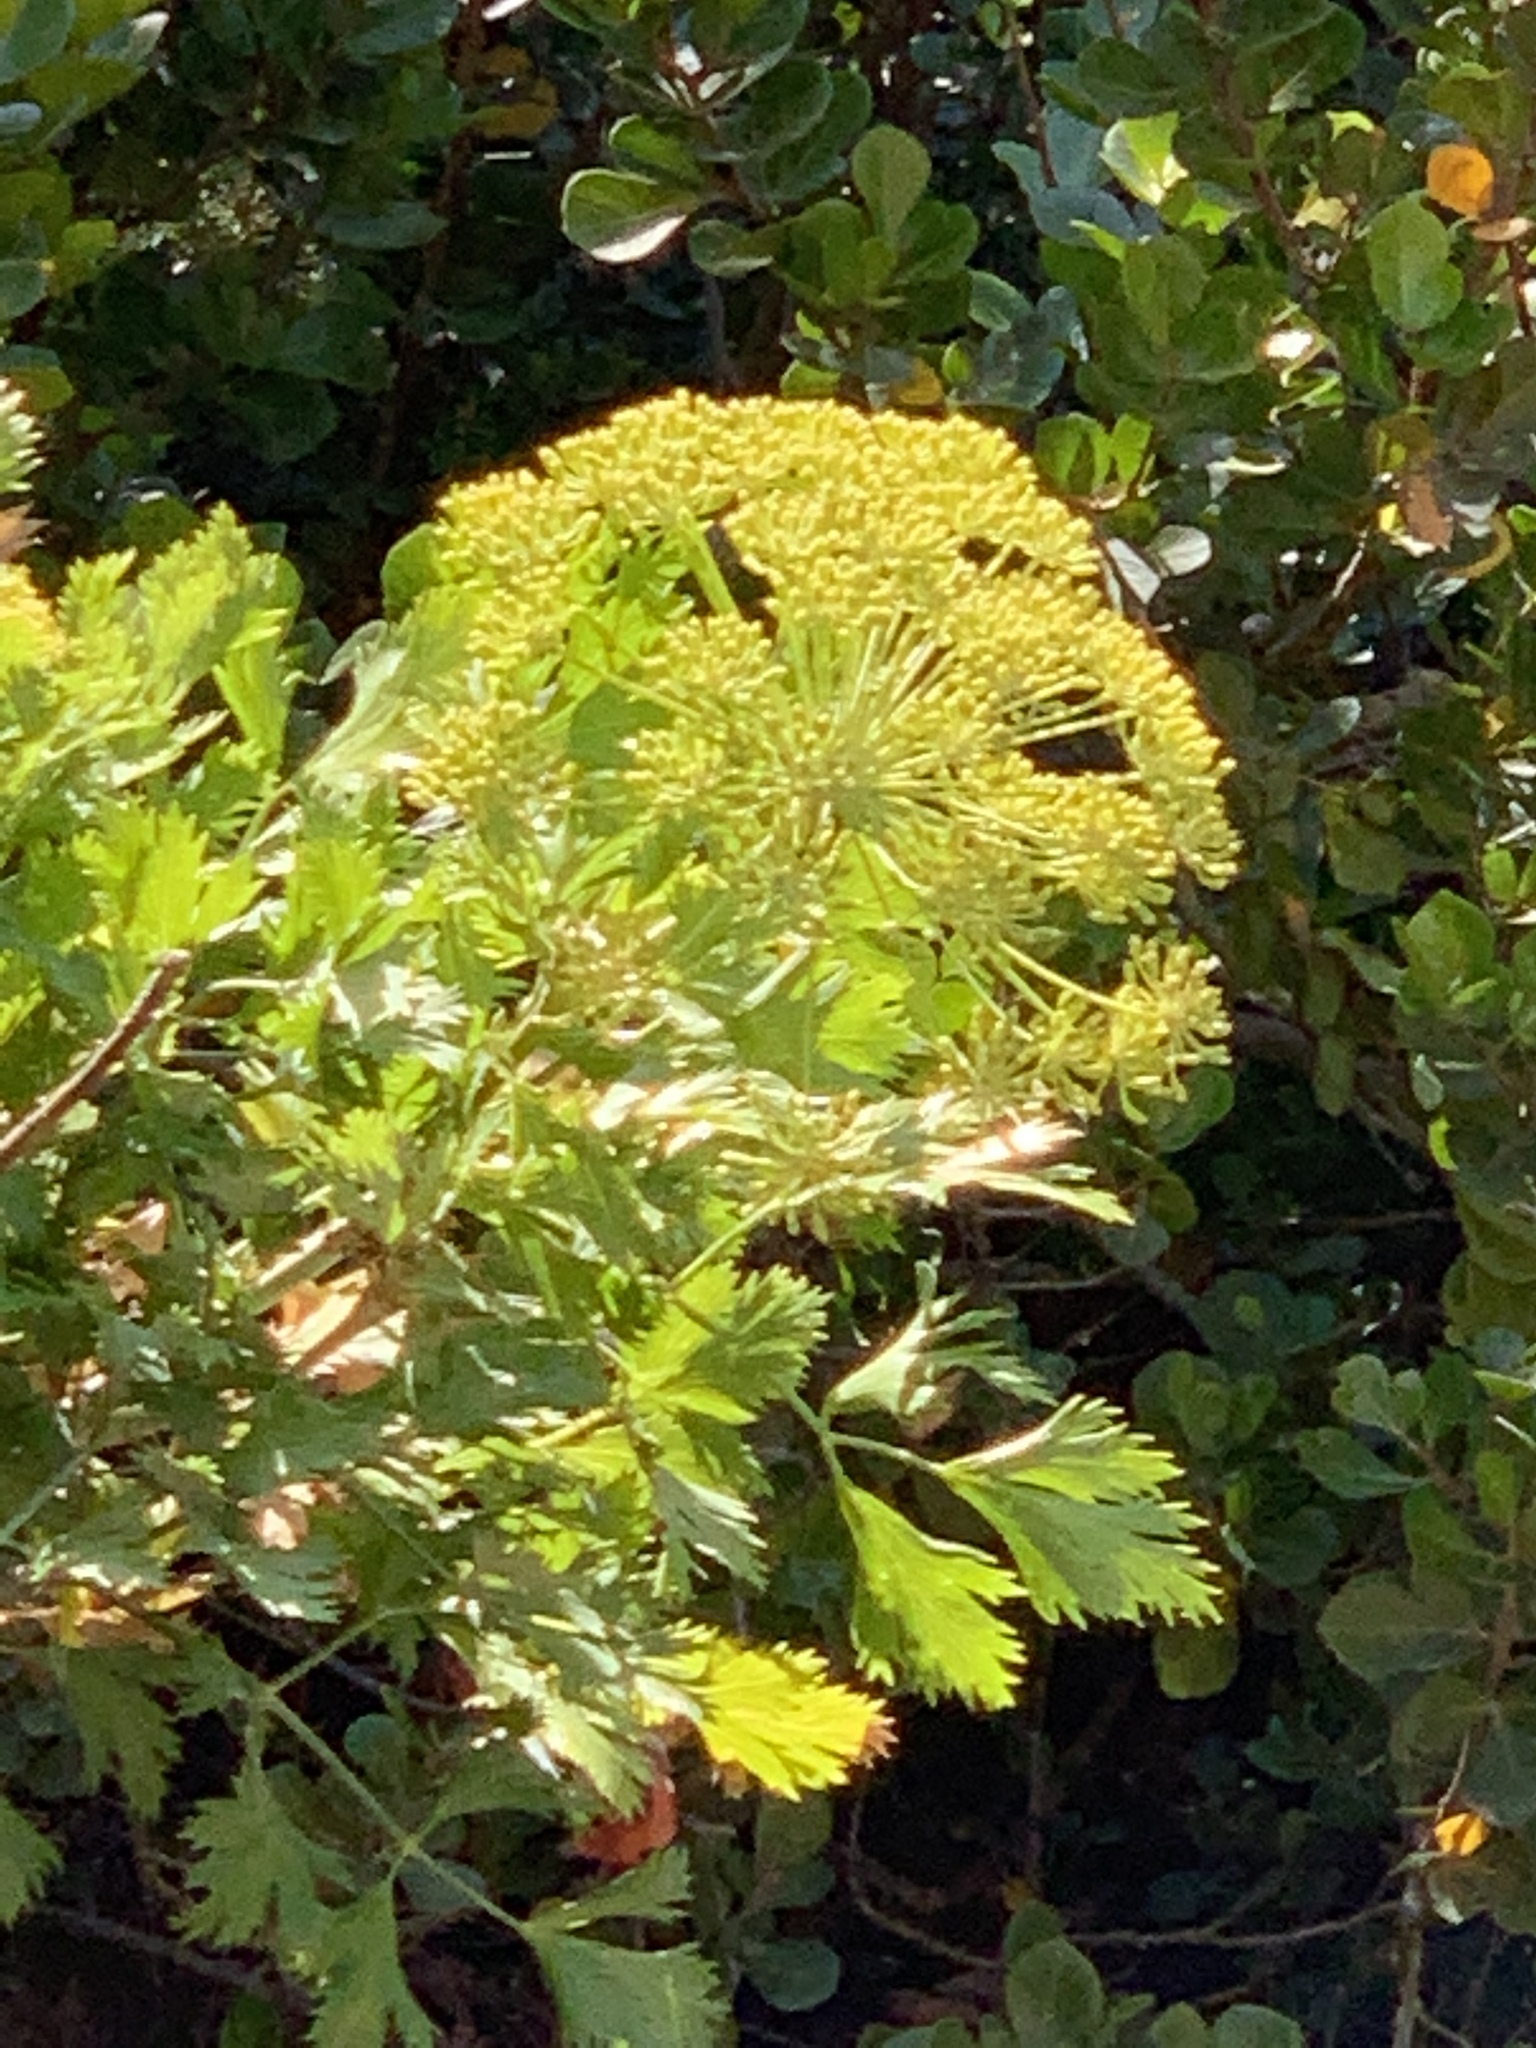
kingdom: Plantae
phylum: Tracheophyta
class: Magnoliopsida
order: Apiales
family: Apiaceae
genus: Notobubon
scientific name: Notobubon galbanum
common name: Blisterbush
